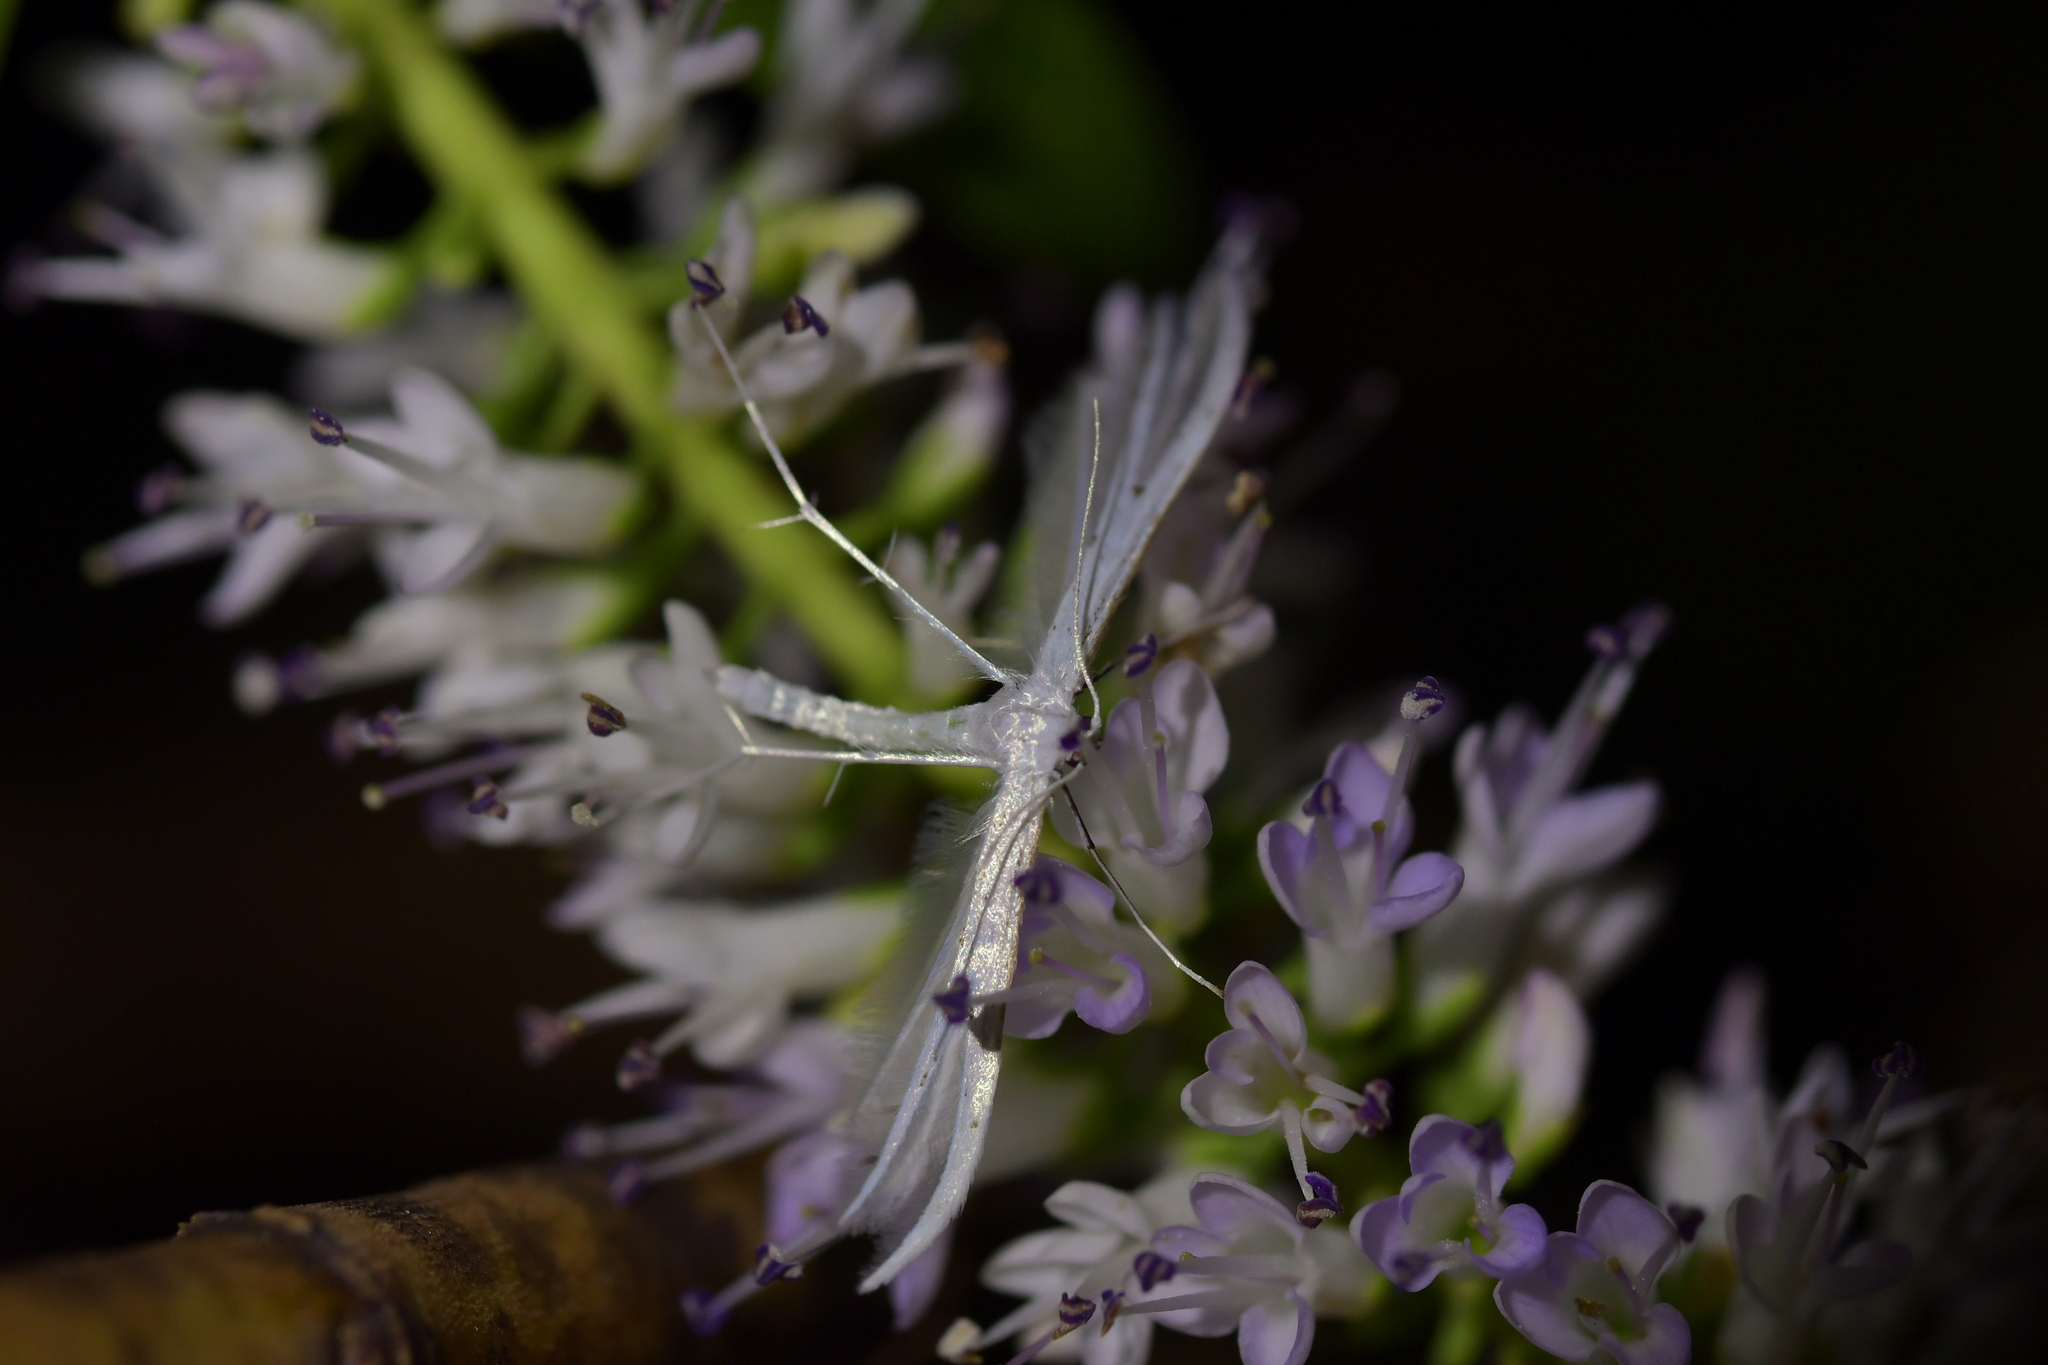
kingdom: Animalia
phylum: Arthropoda
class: Insecta
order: Lepidoptera
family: Pterophoridae
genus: Pterophorus
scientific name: Pterophorus monospilalis
